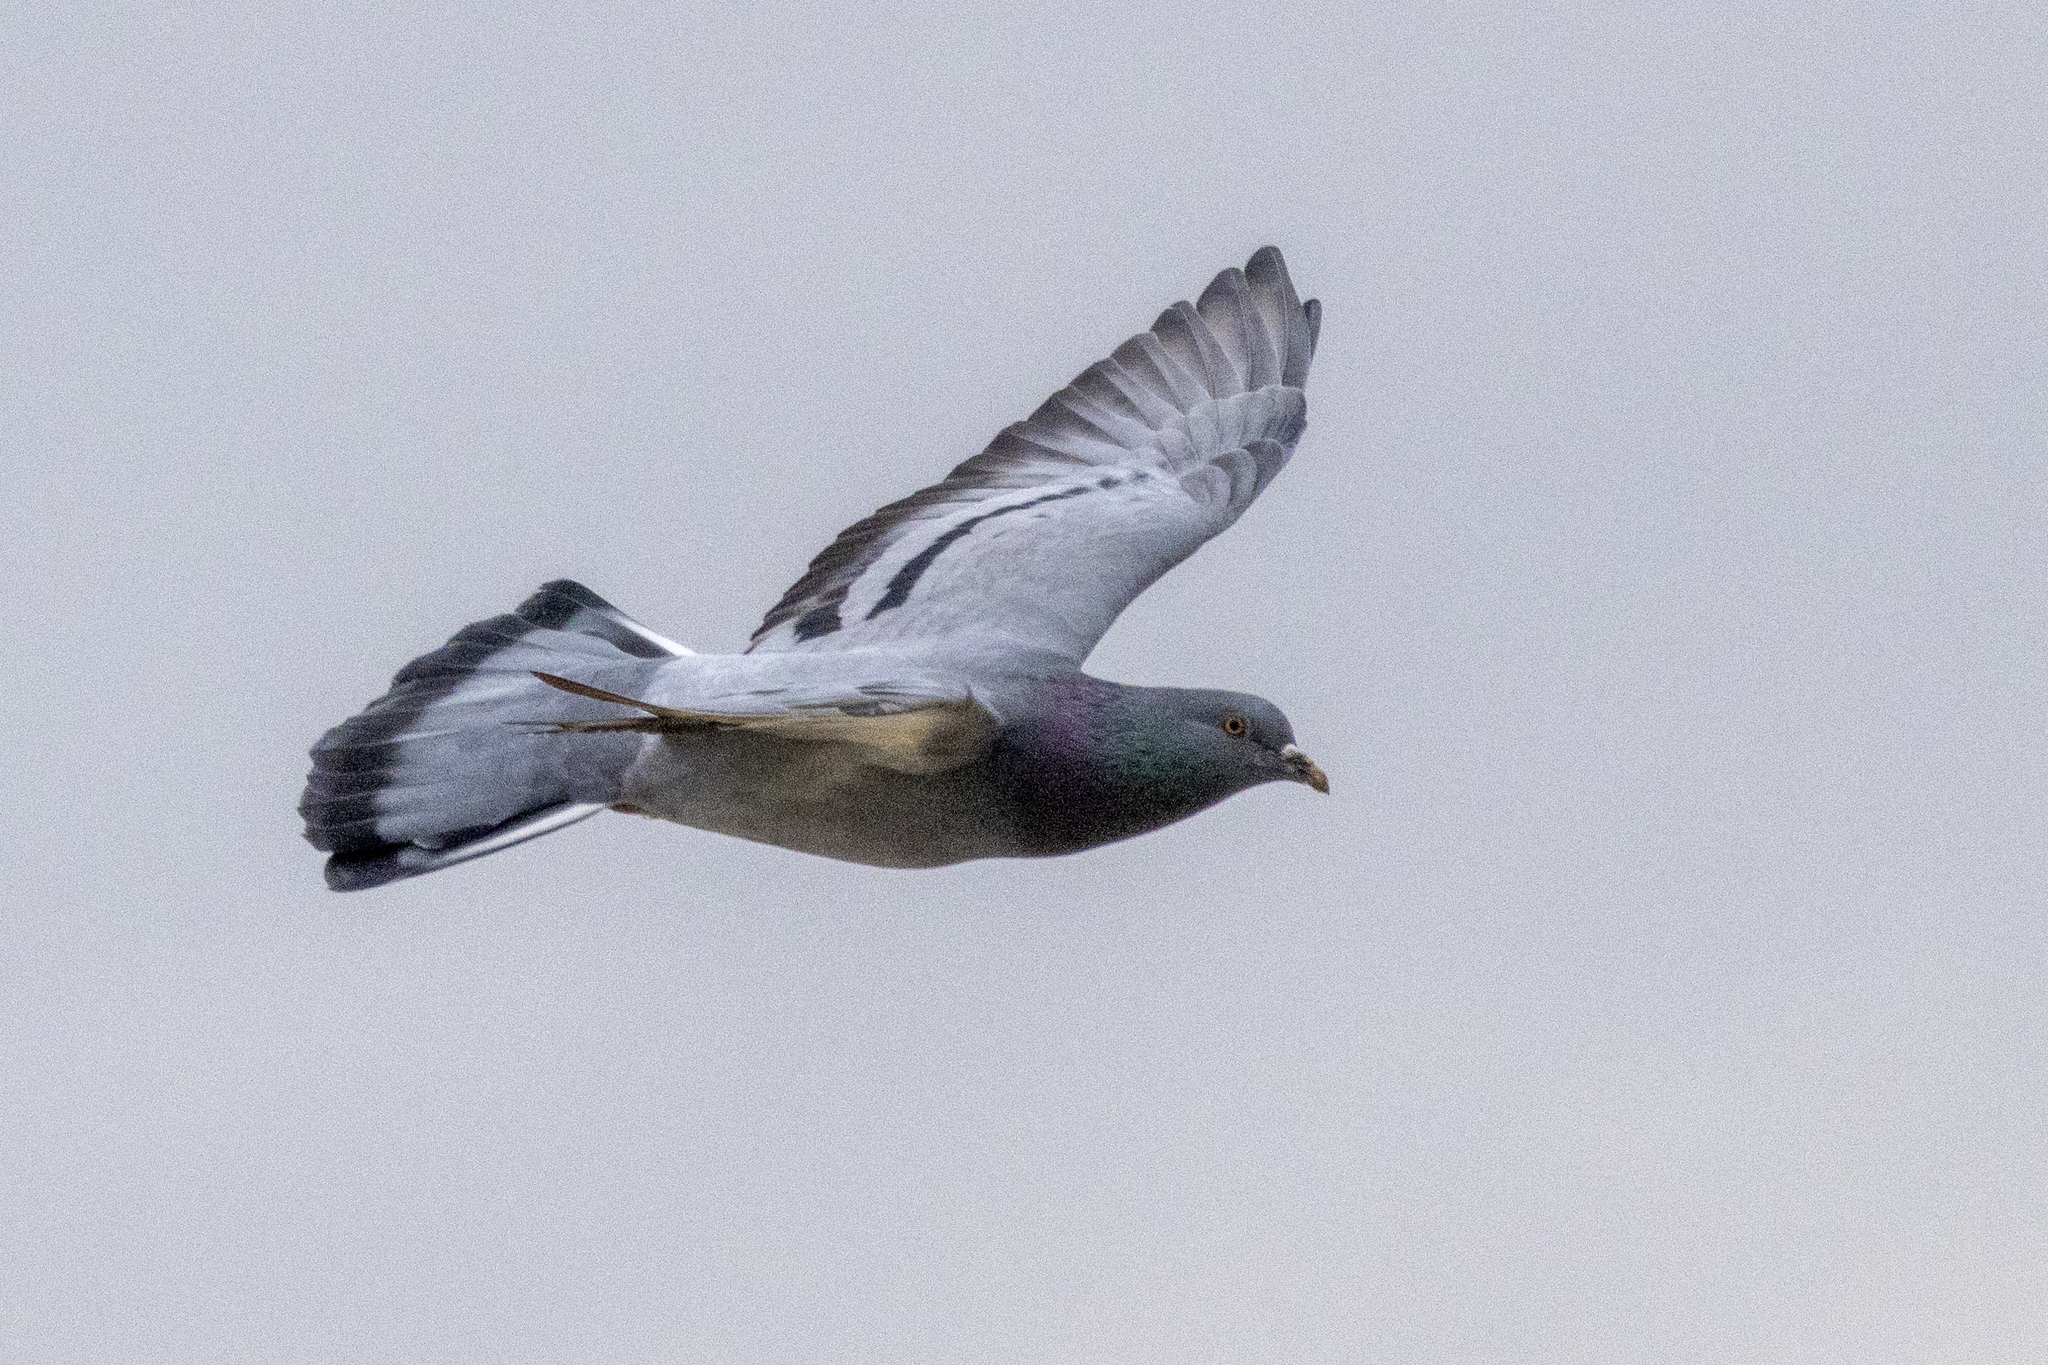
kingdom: Animalia
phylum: Chordata
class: Aves
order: Columbiformes
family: Columbidae
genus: Columba
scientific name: Columba livia
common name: Rock pigeon
